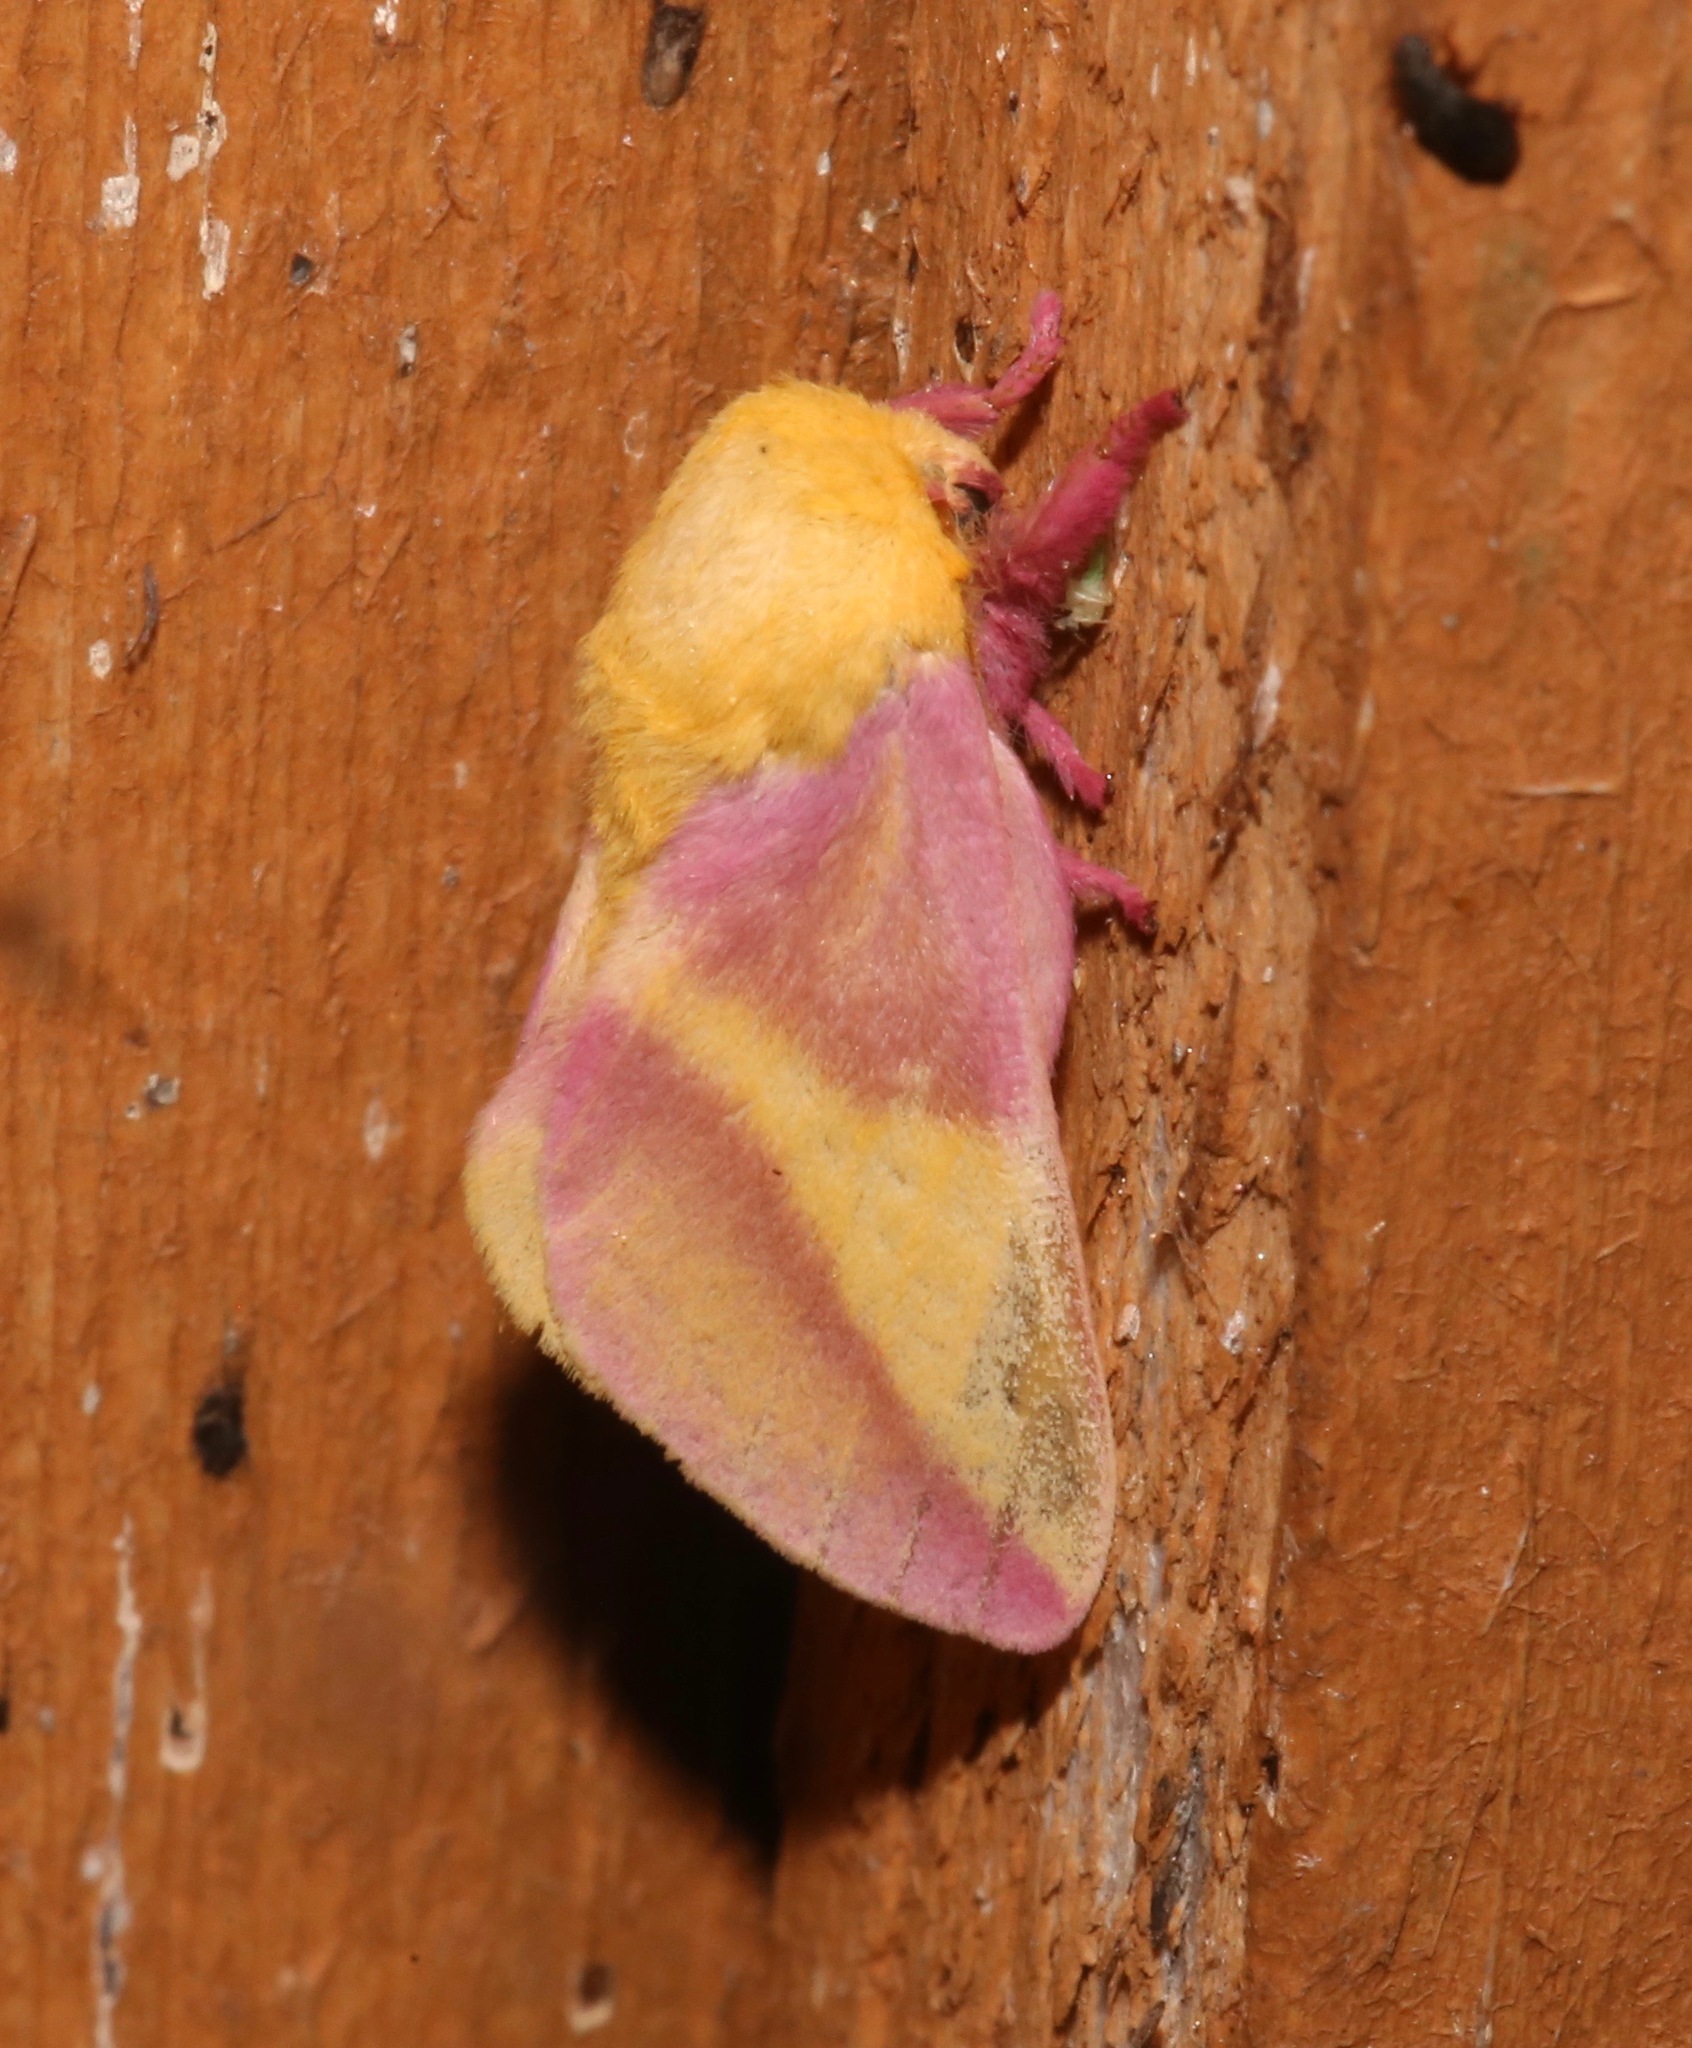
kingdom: Animalia
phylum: Arthropoda
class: Insecta
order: Lepidoptera
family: Saturniidae
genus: Dryocampa
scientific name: Dryocampa rubicunda
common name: Rosy maple moth
